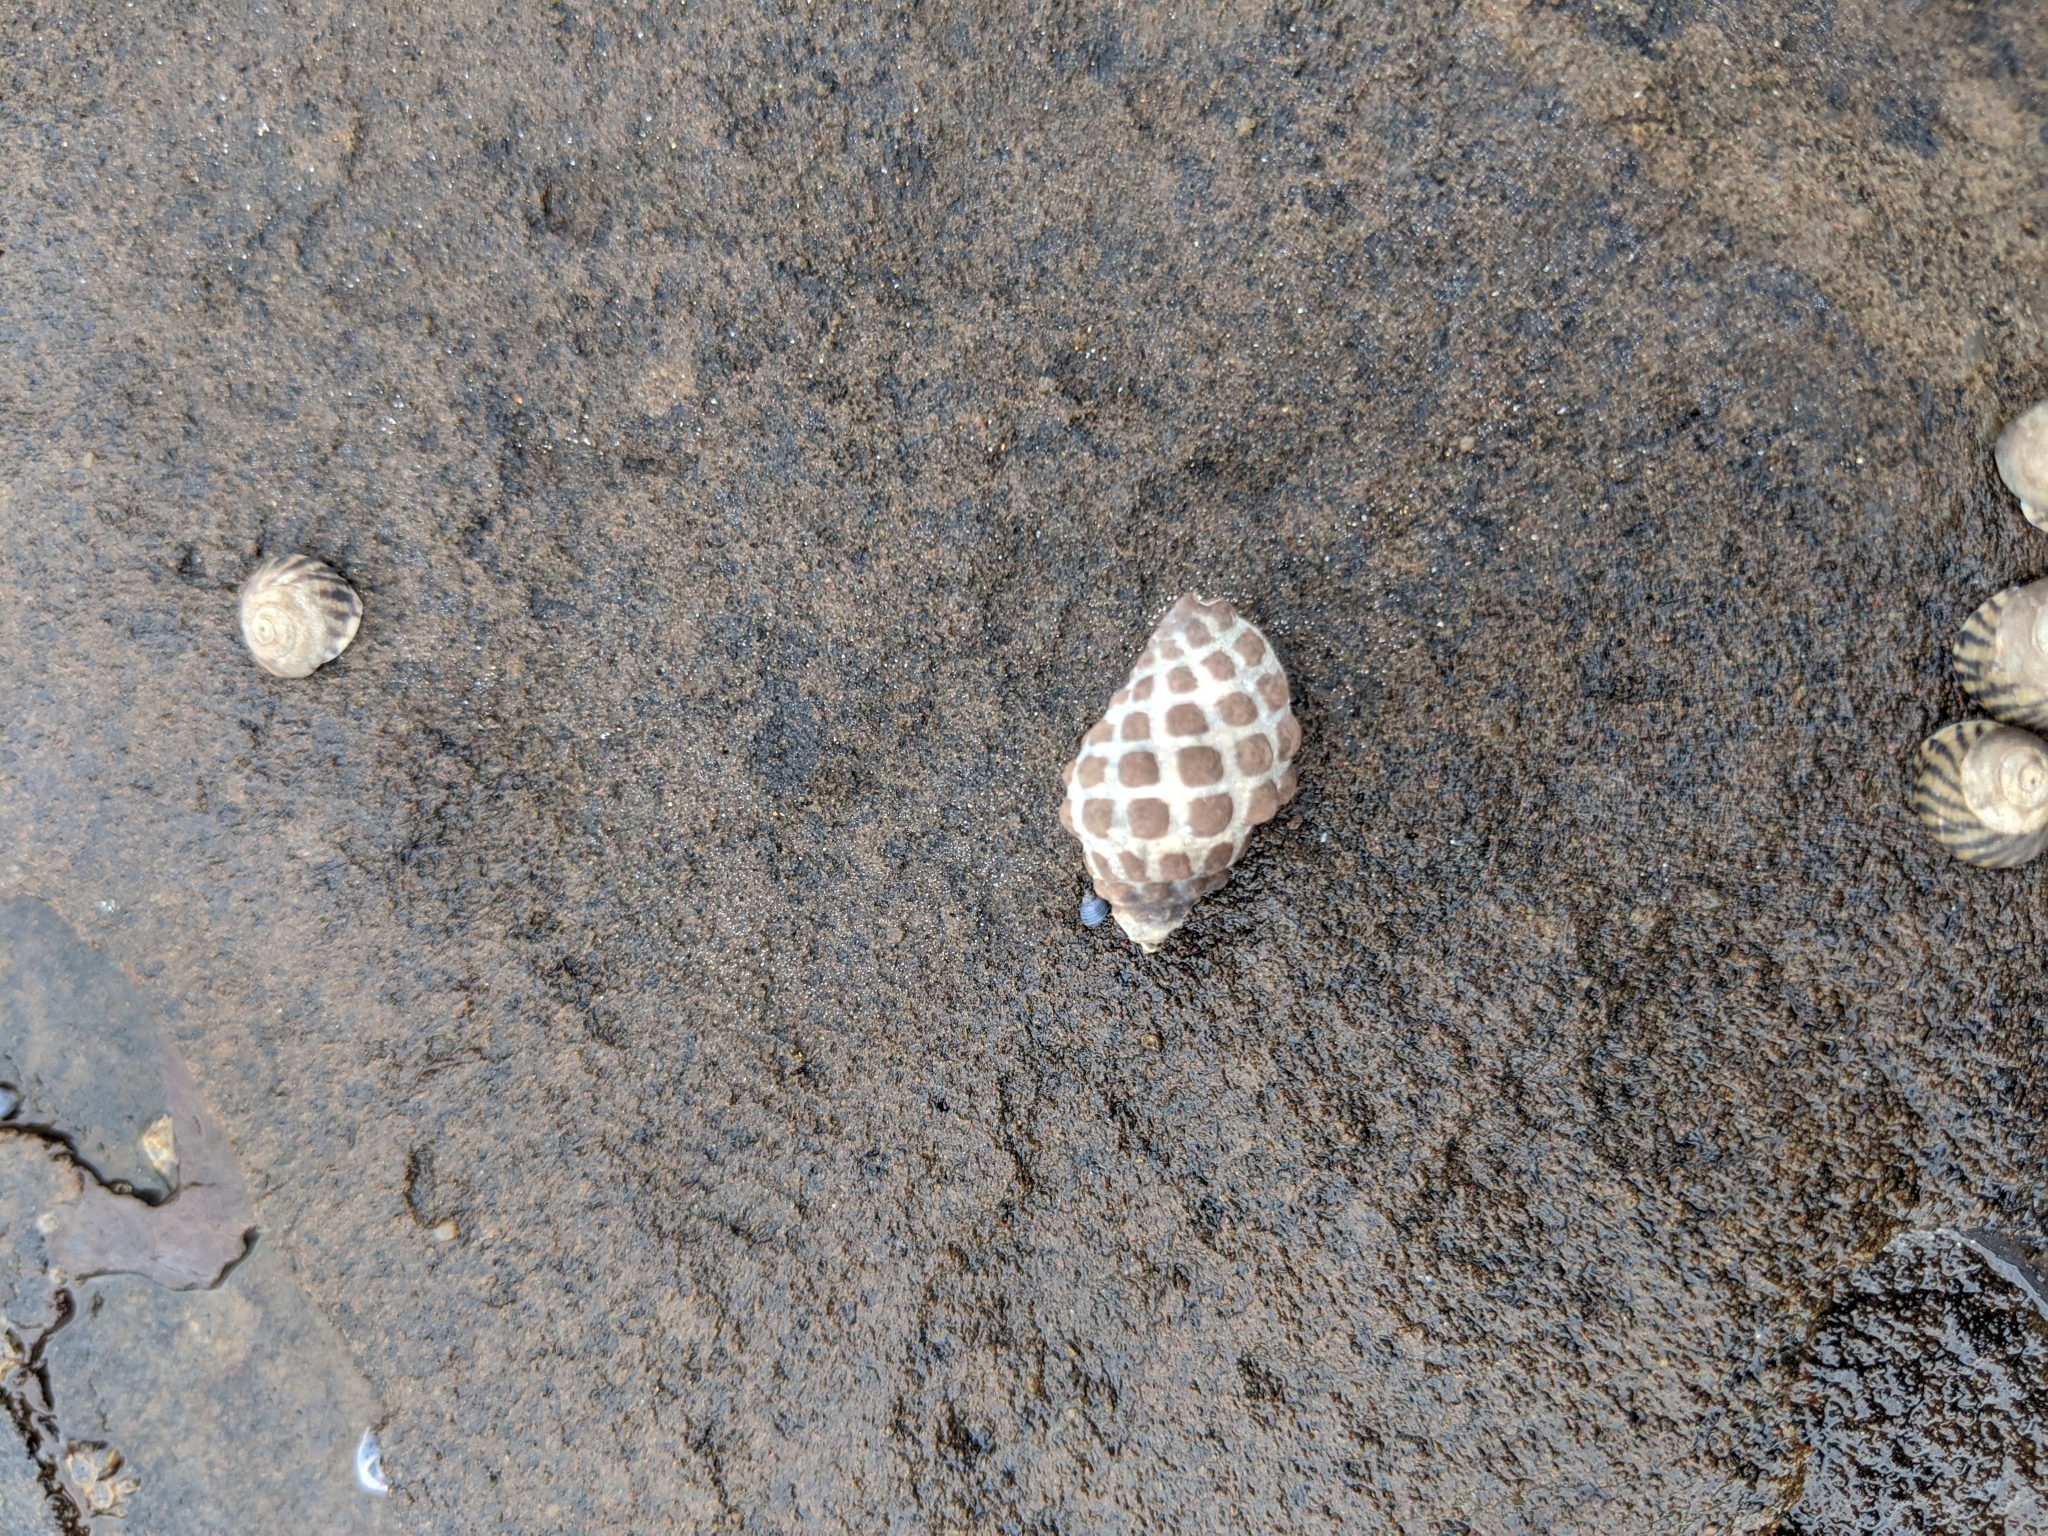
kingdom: Animalia
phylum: Mollusca
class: Gastropoda
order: Neogastropoda
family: Muricidae
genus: Tenguella
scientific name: Tenguella marginalba
